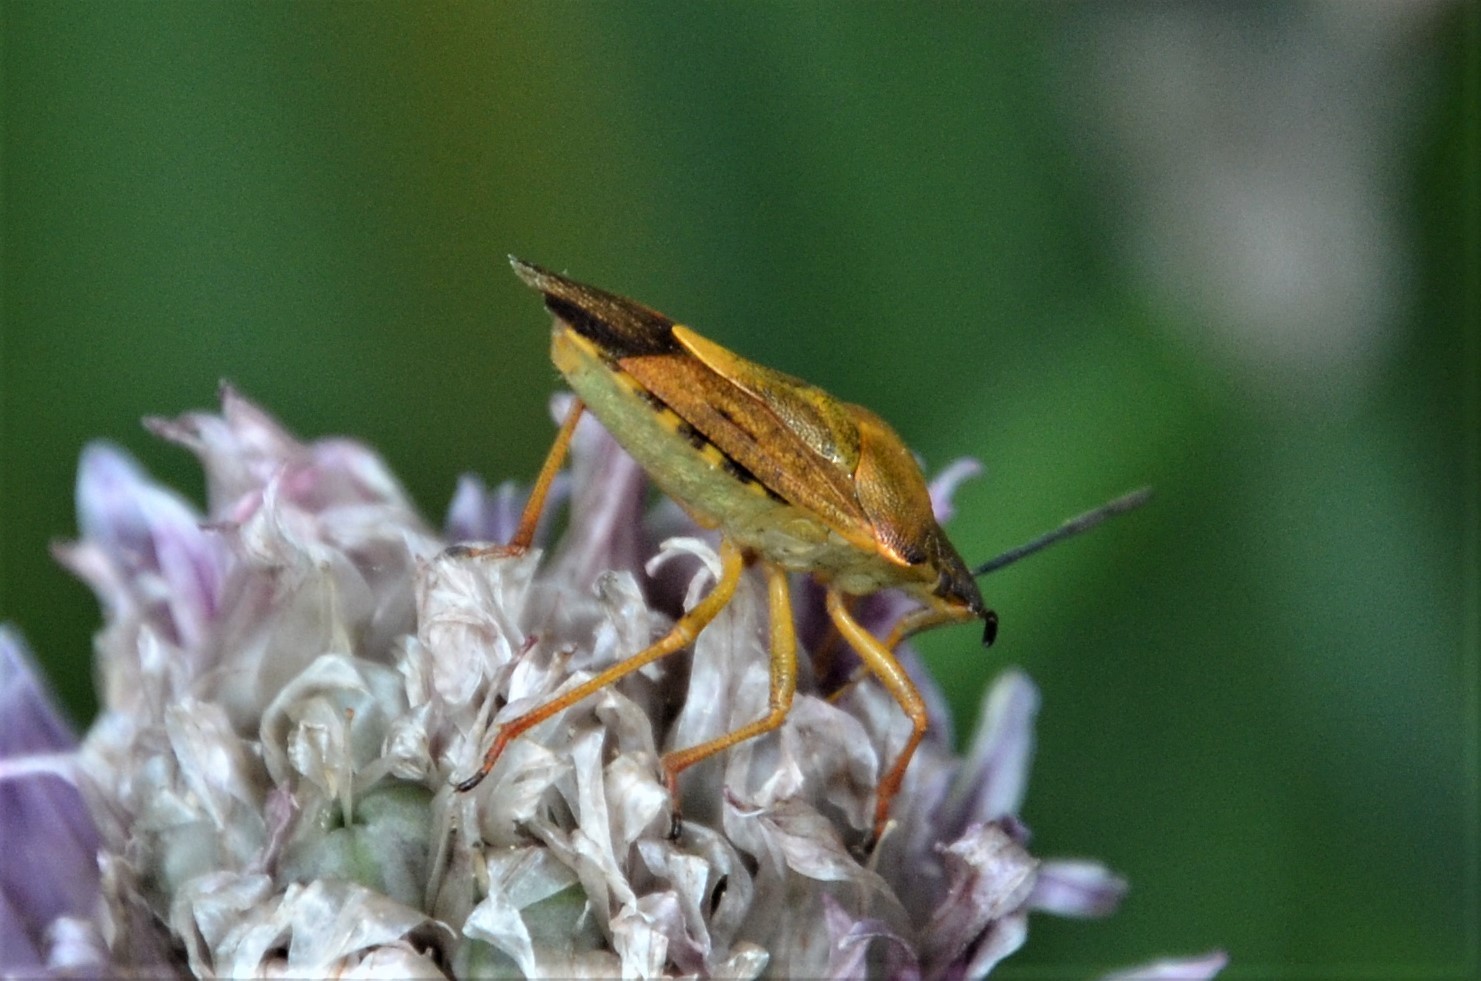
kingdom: Animalia
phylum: Arthropoda
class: Insecta
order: Hemiptera
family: Pentatomidae
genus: Carpocoris
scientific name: Carpocoris purpureipennis
